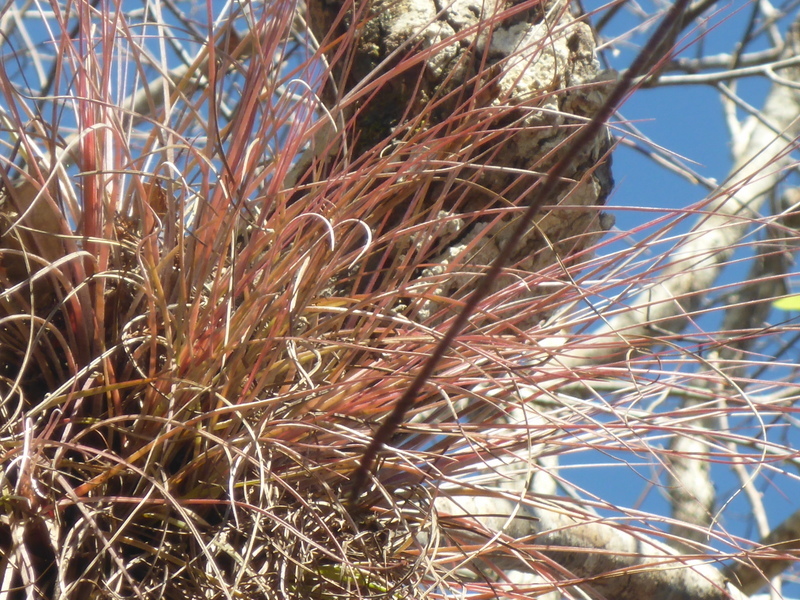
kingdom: Plantae
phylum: Tracheophyta
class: Liliopsida
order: Poales
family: Bromeliaceae
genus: Tillandsia
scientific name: Tillandsia bartramii
